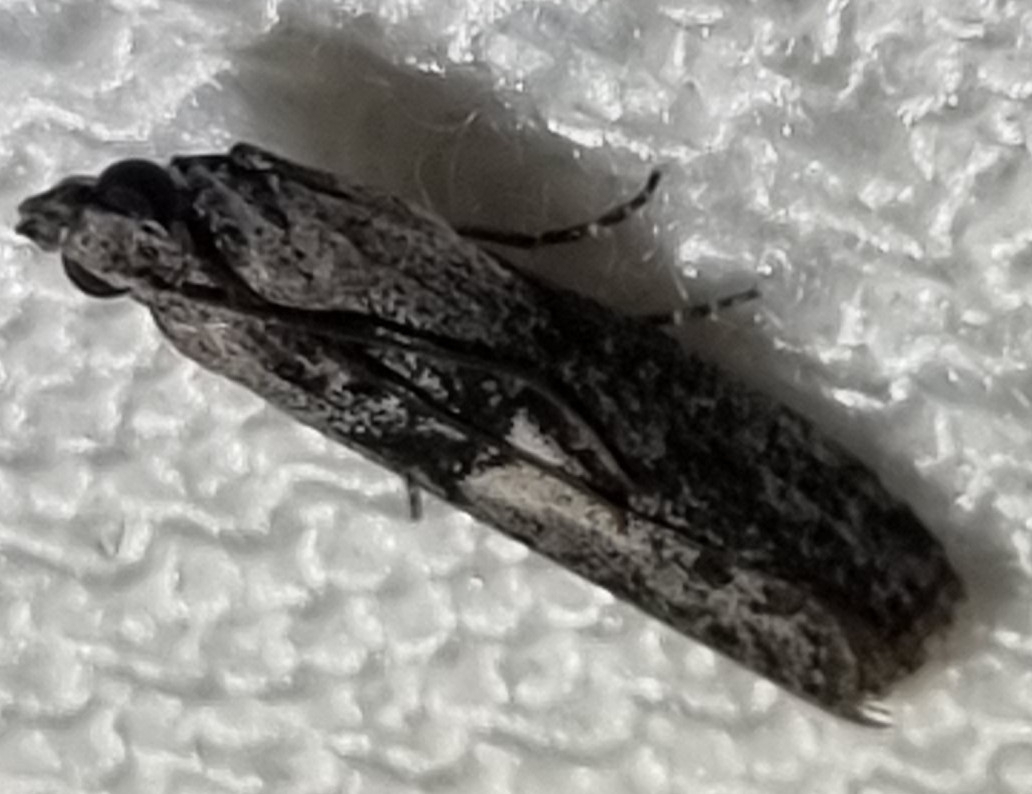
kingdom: Animalia
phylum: Arthropoda
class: Insecta
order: Lepidoptera
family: Pyralidae
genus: Sciota
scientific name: Sciota
